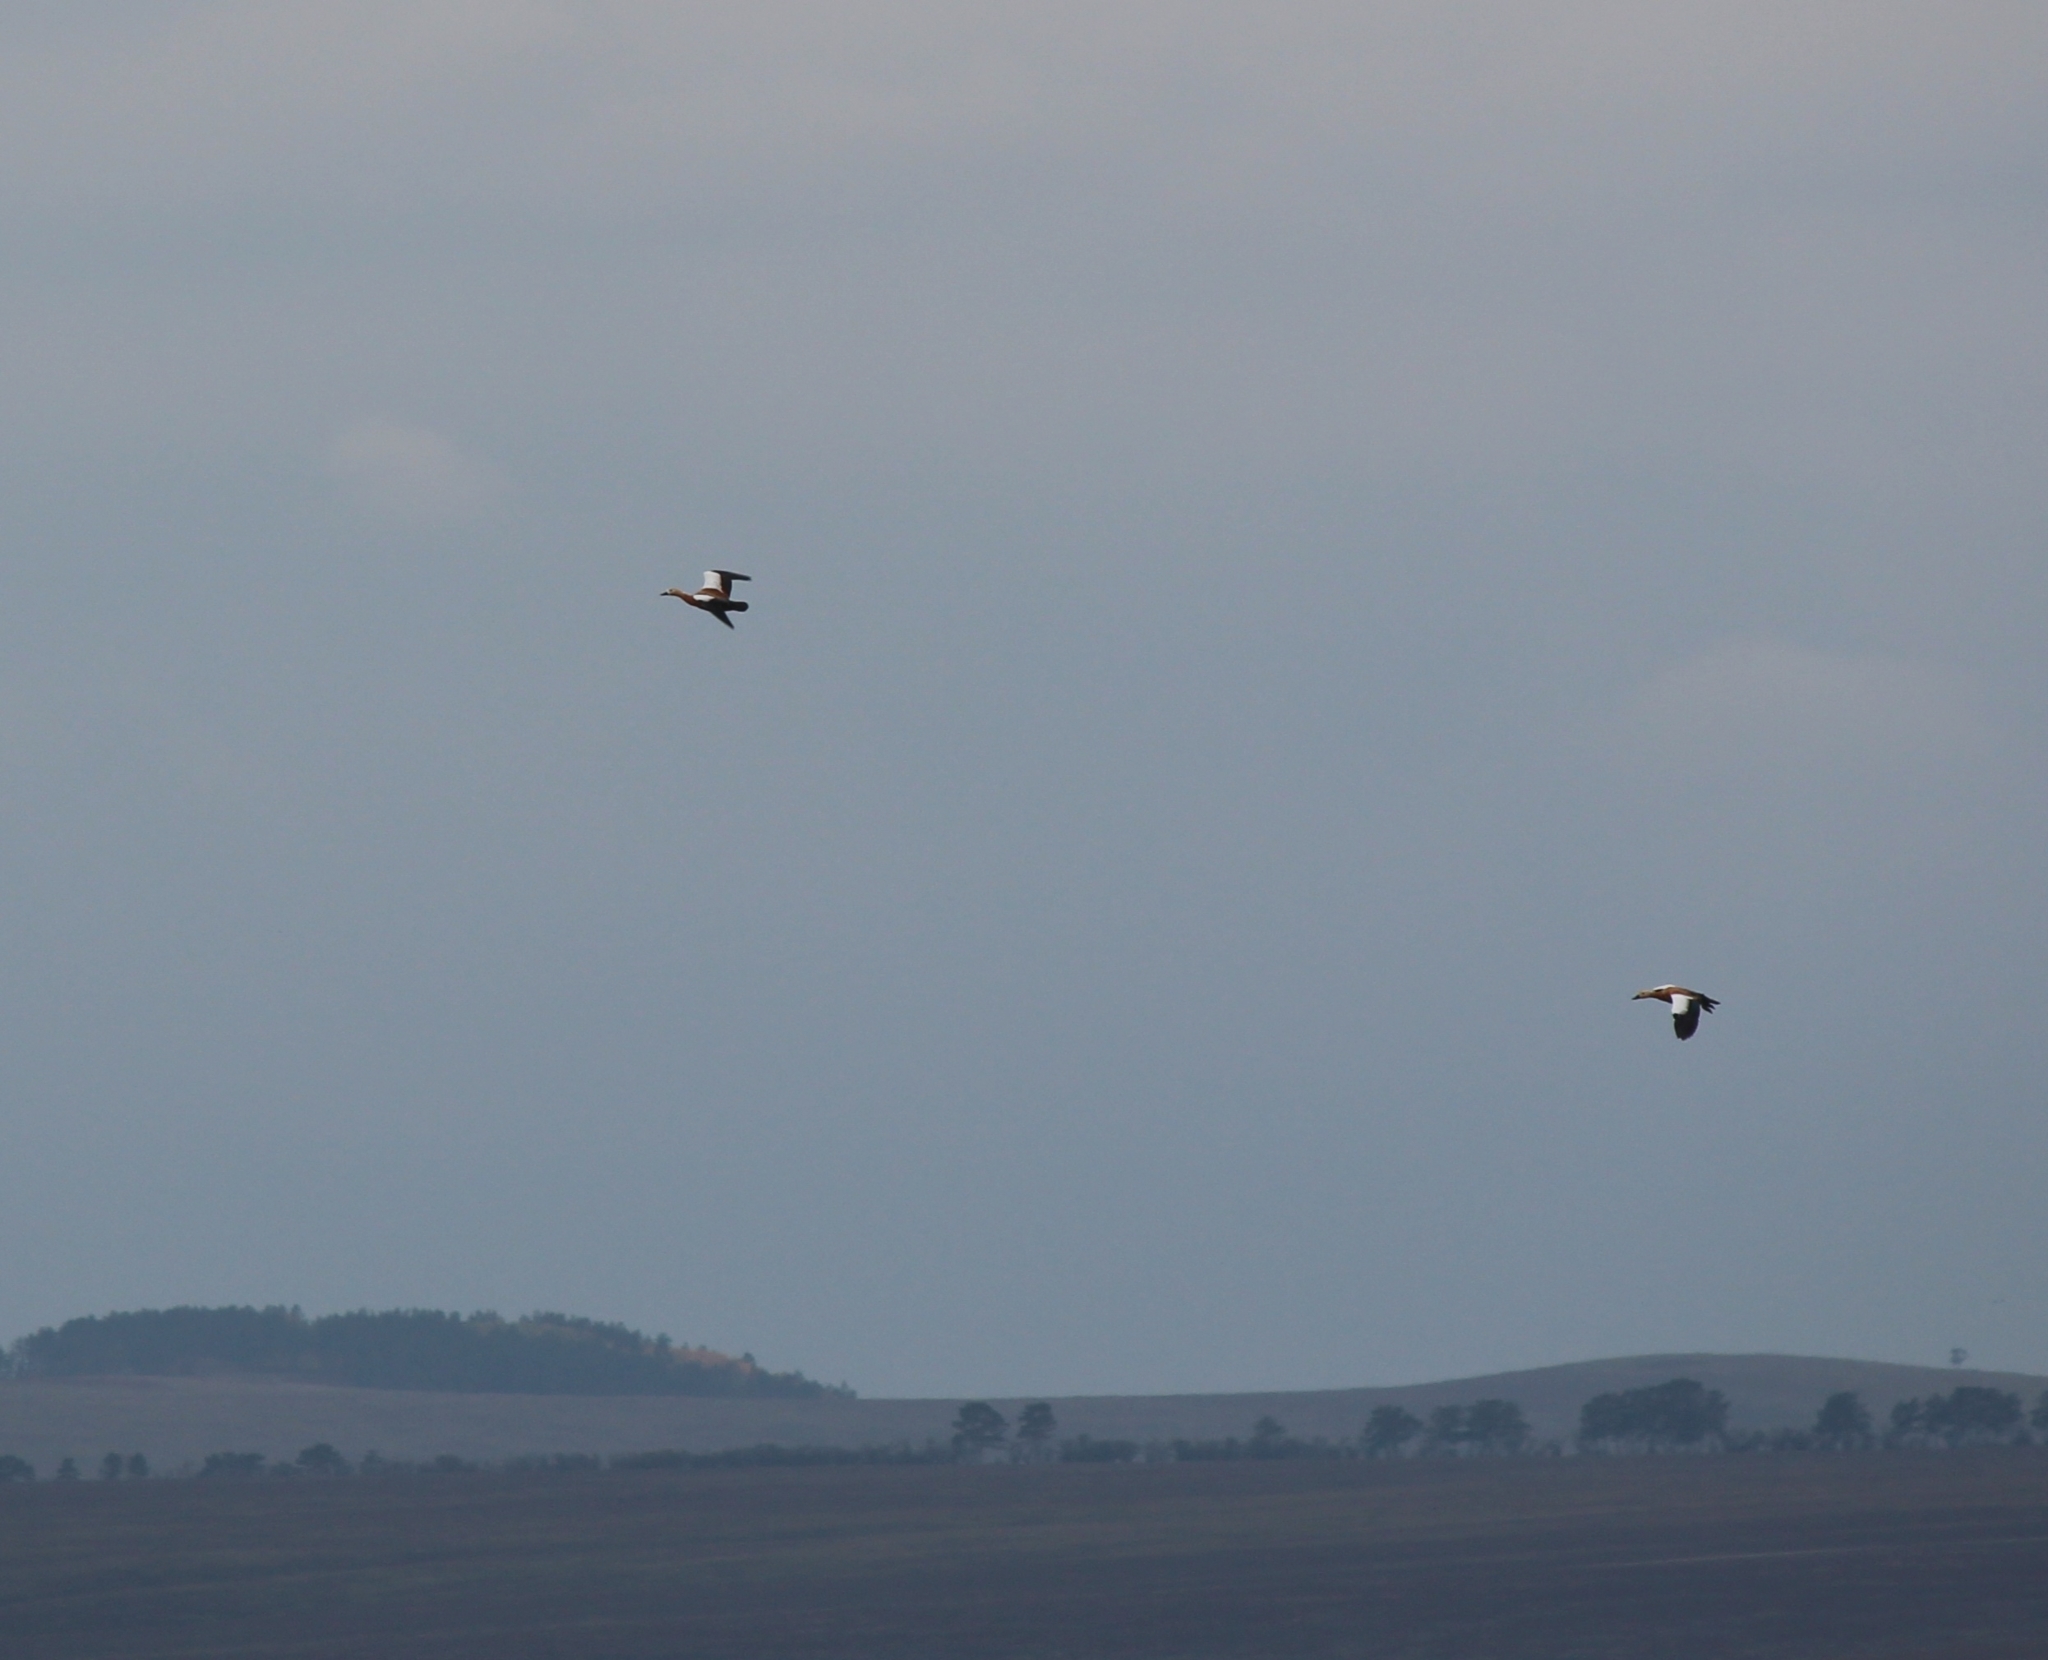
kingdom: Animalia
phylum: Chordata
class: Aves
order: Anseriformes
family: Anatidae
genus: Tadorna
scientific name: Tadorna ferruginea
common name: Ruddy shelduck
